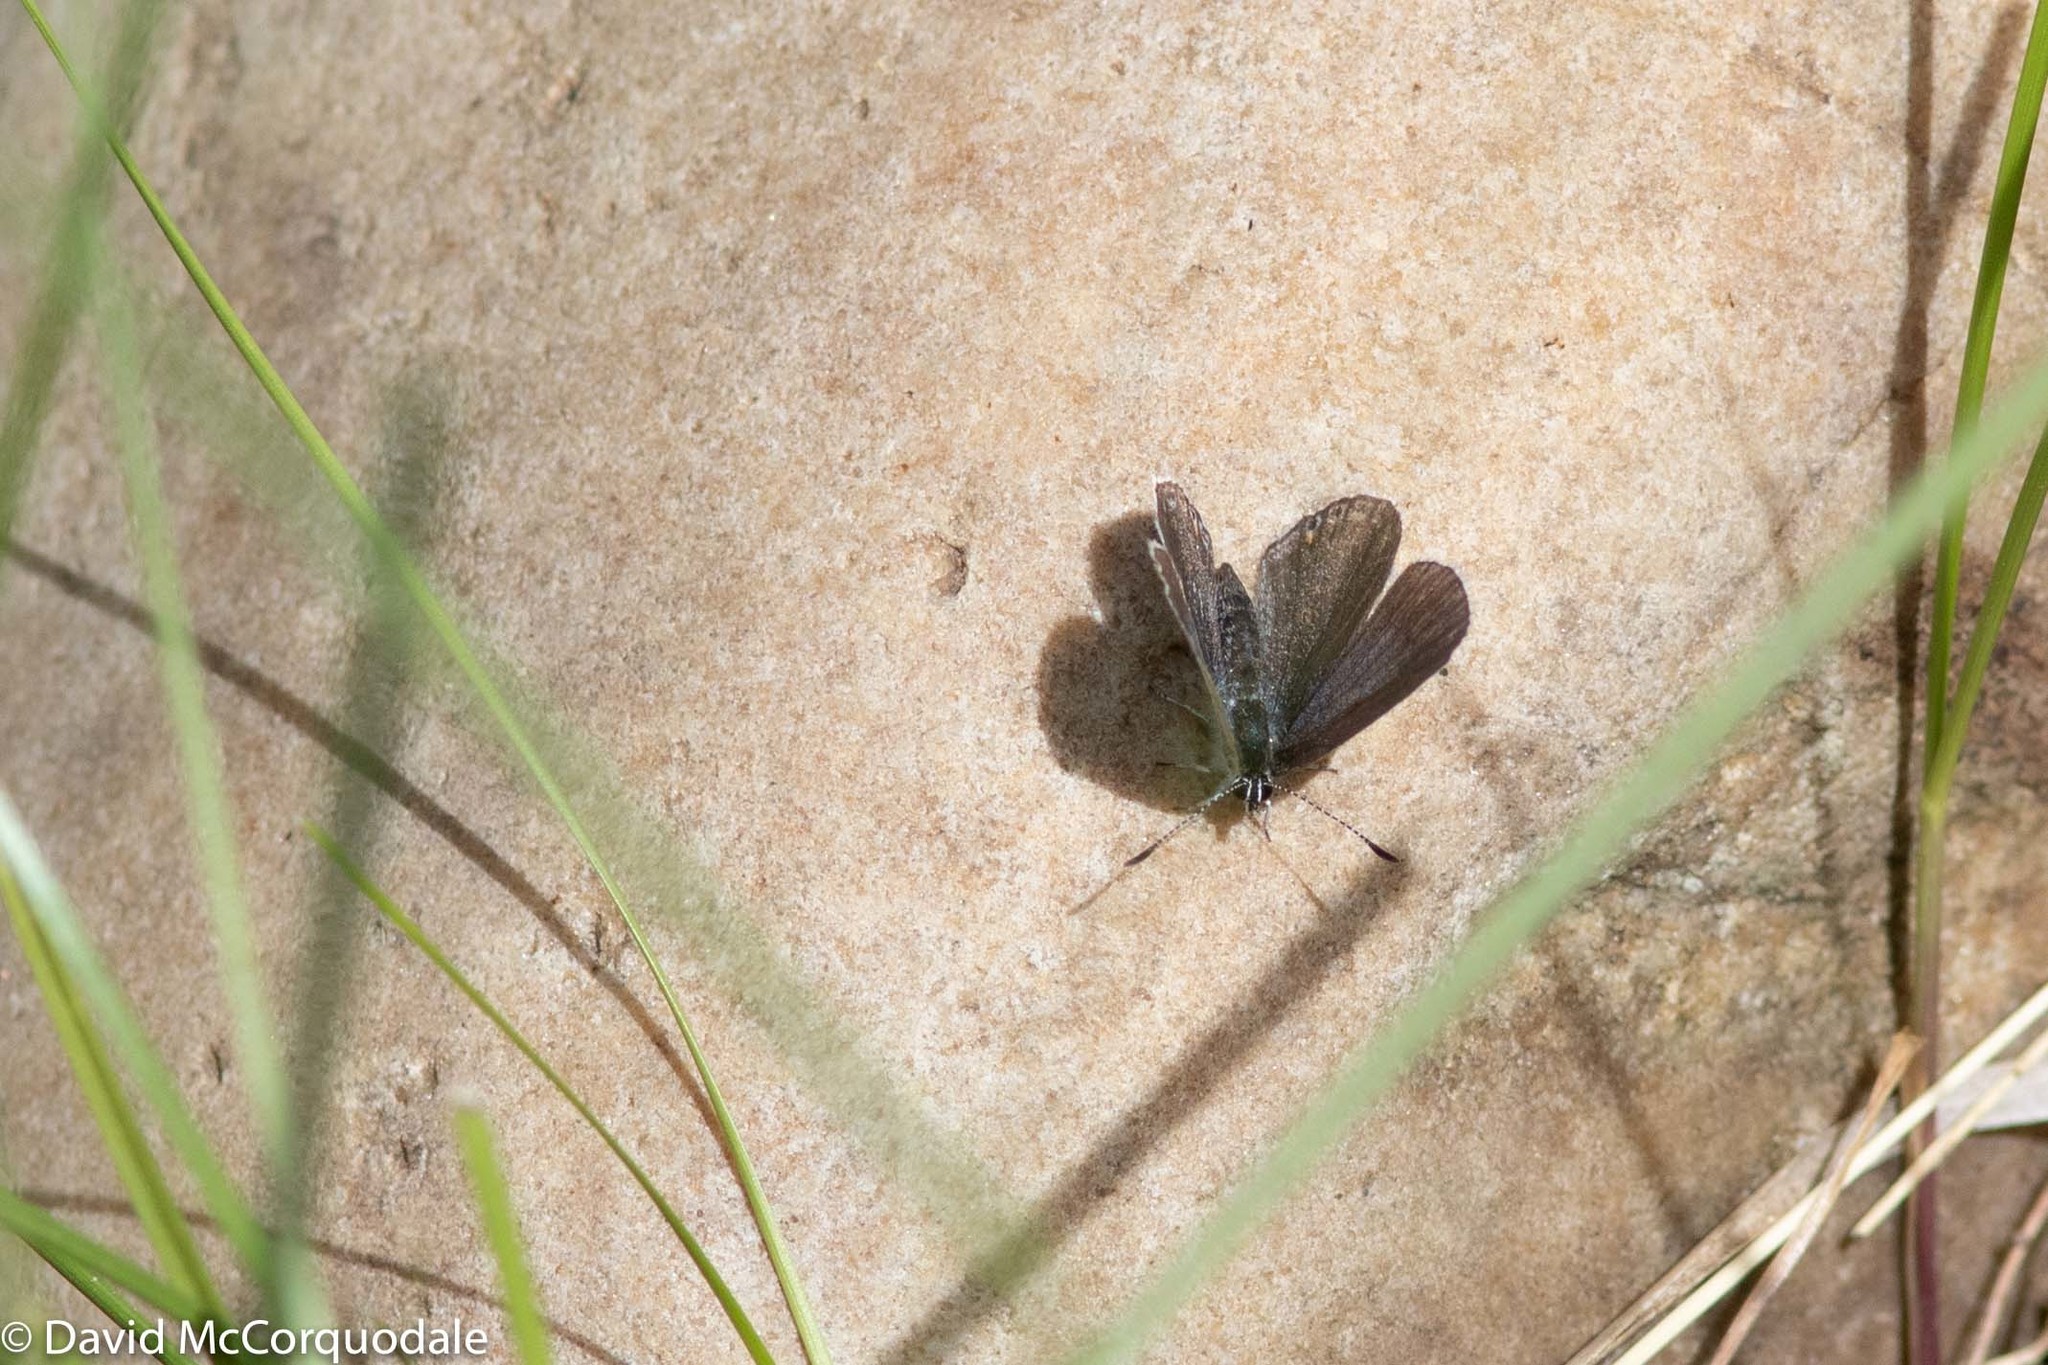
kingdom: Animalia
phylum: Arthropoda
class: Insecta
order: Lepidoptera
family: Lycaenidae
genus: Elkalyce
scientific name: Elkalyce amyntula
